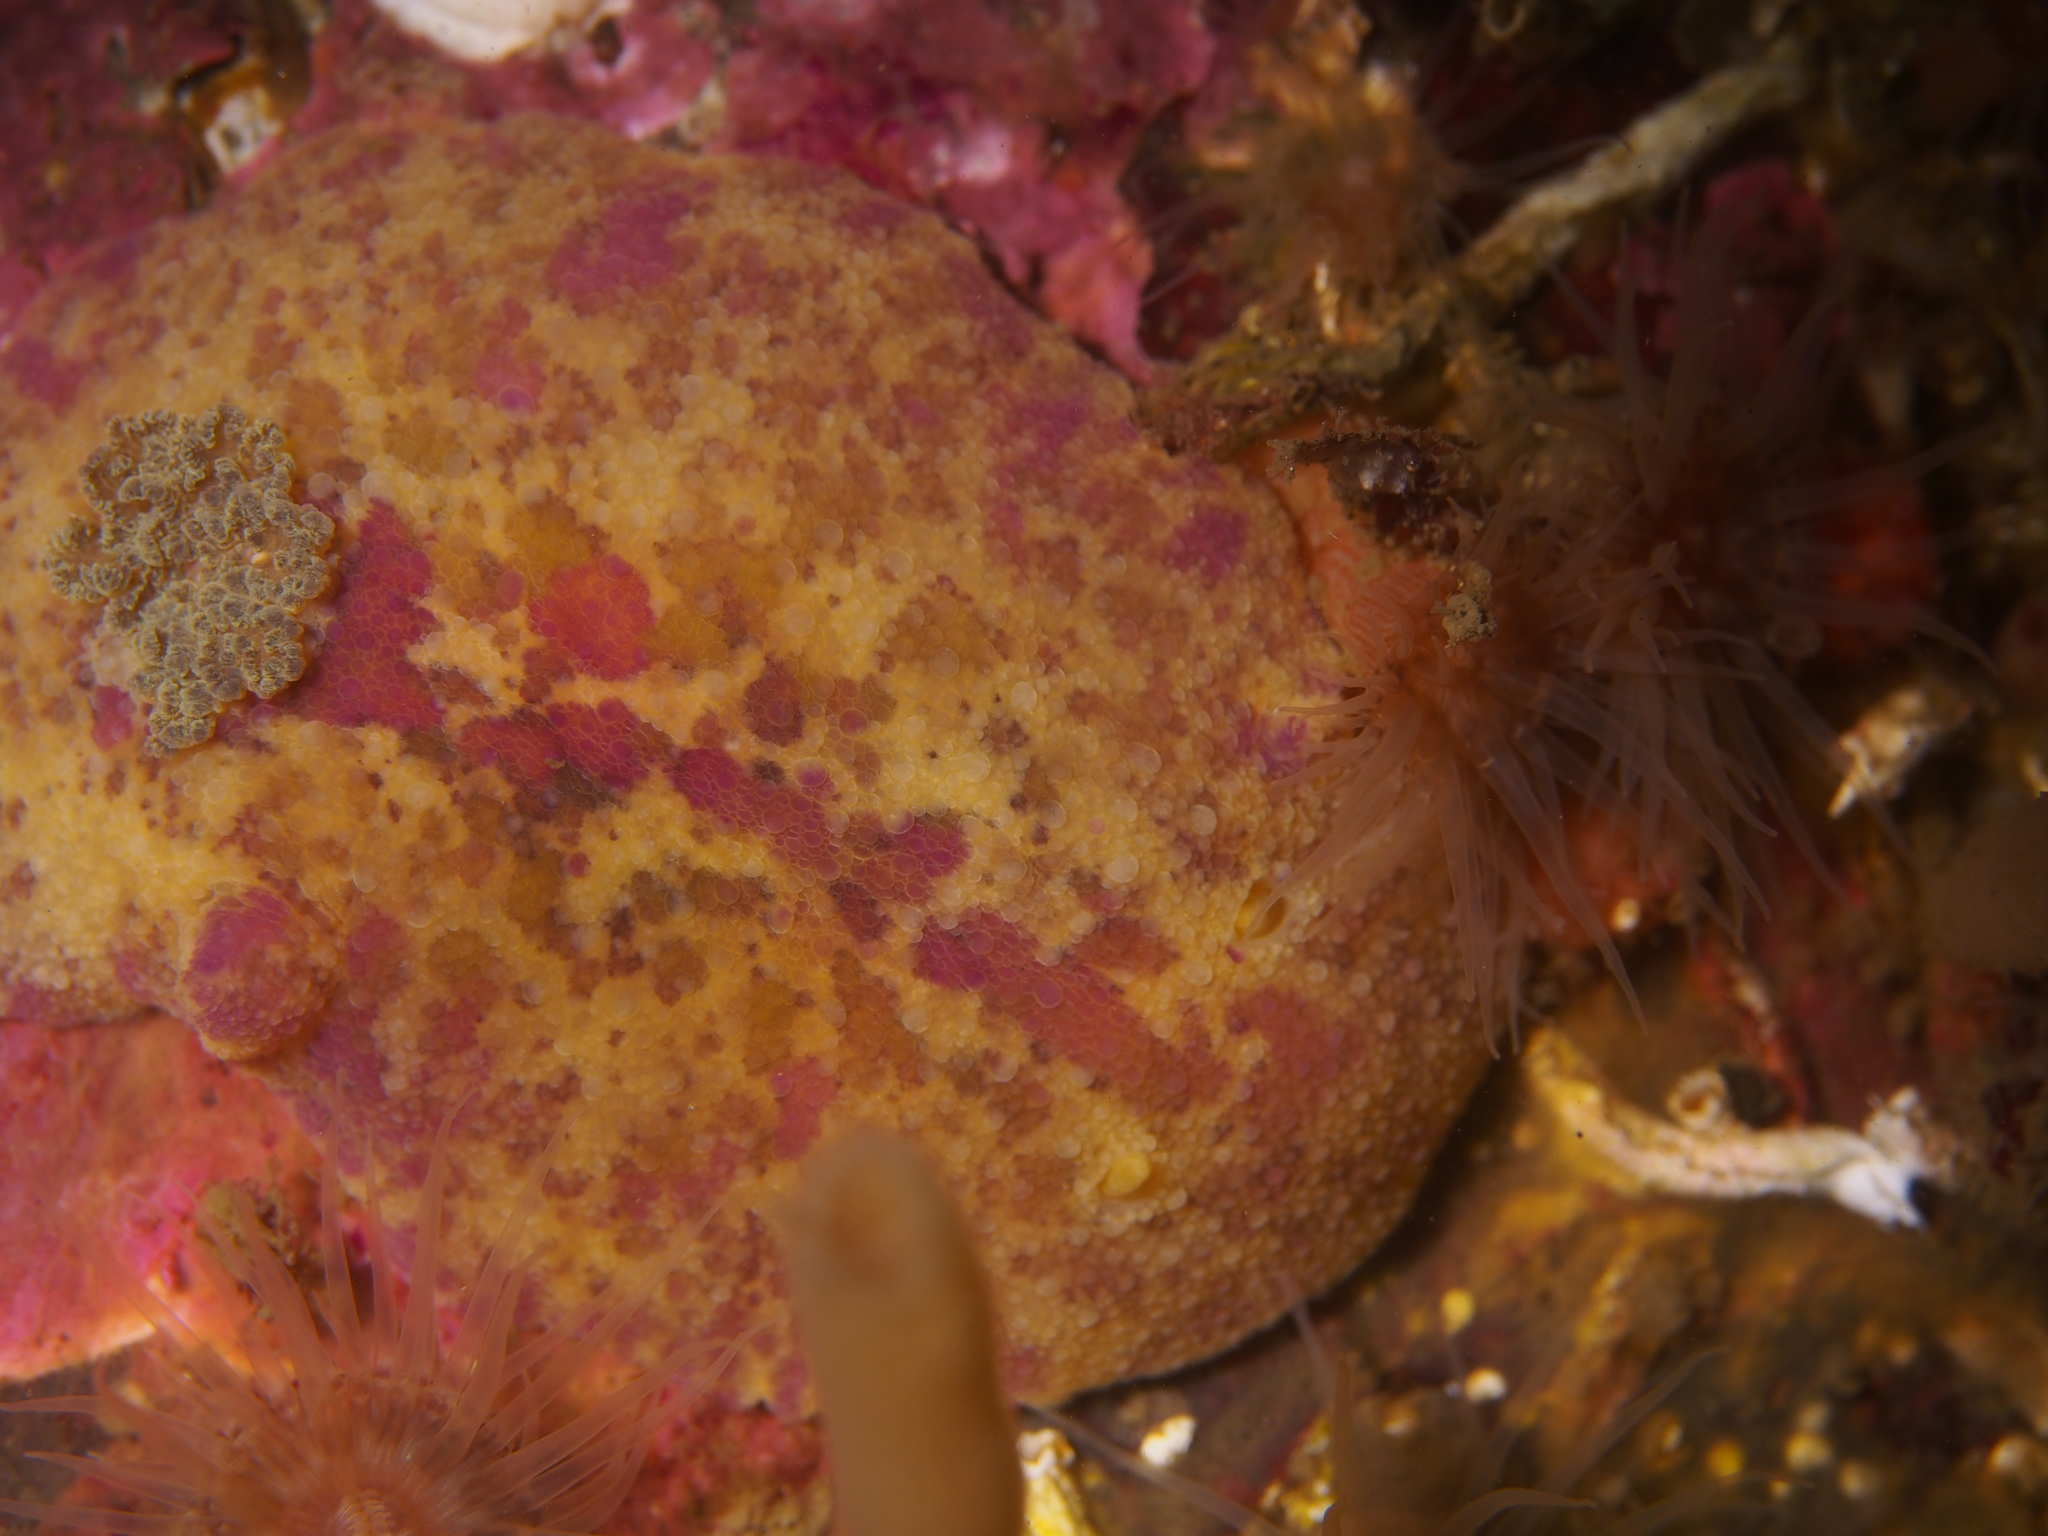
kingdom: Animalia
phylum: Mollusca
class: Gastropoda
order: Nudibranchia
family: Dorididae
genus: Doris
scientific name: Doris pseudoargus
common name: Sea lemon
